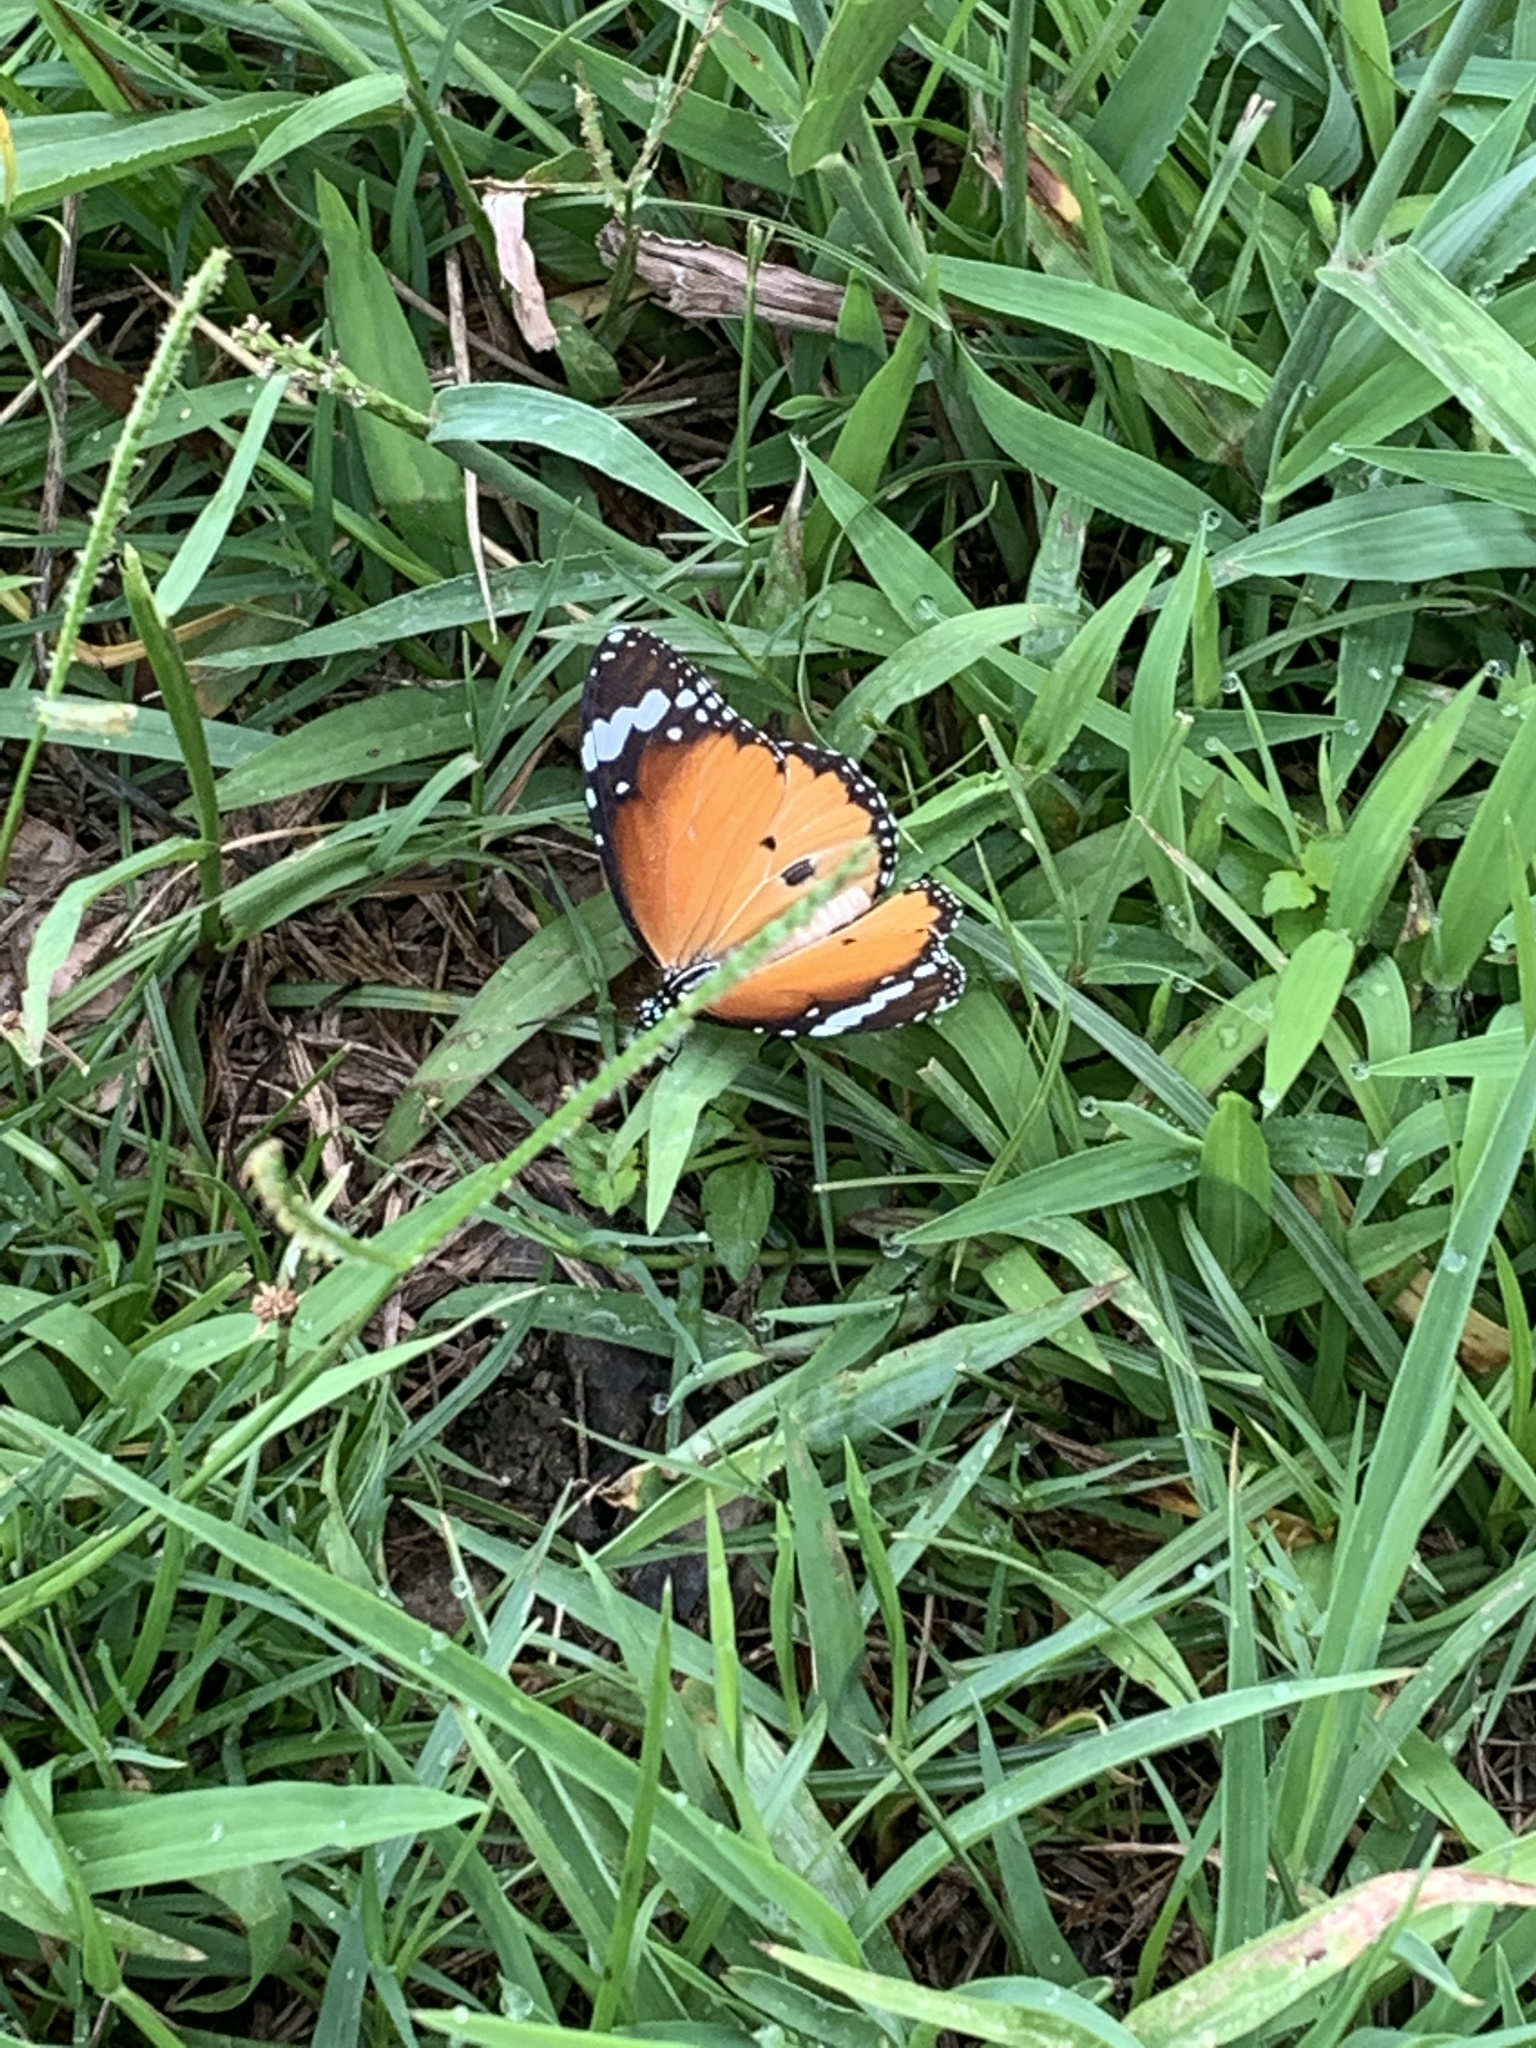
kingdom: Animalia
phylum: Arthropoda
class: Insecta
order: Lepidoptera
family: Nymphalidae
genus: Danaus
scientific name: Danaus chrysippus
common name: Plain tiger
